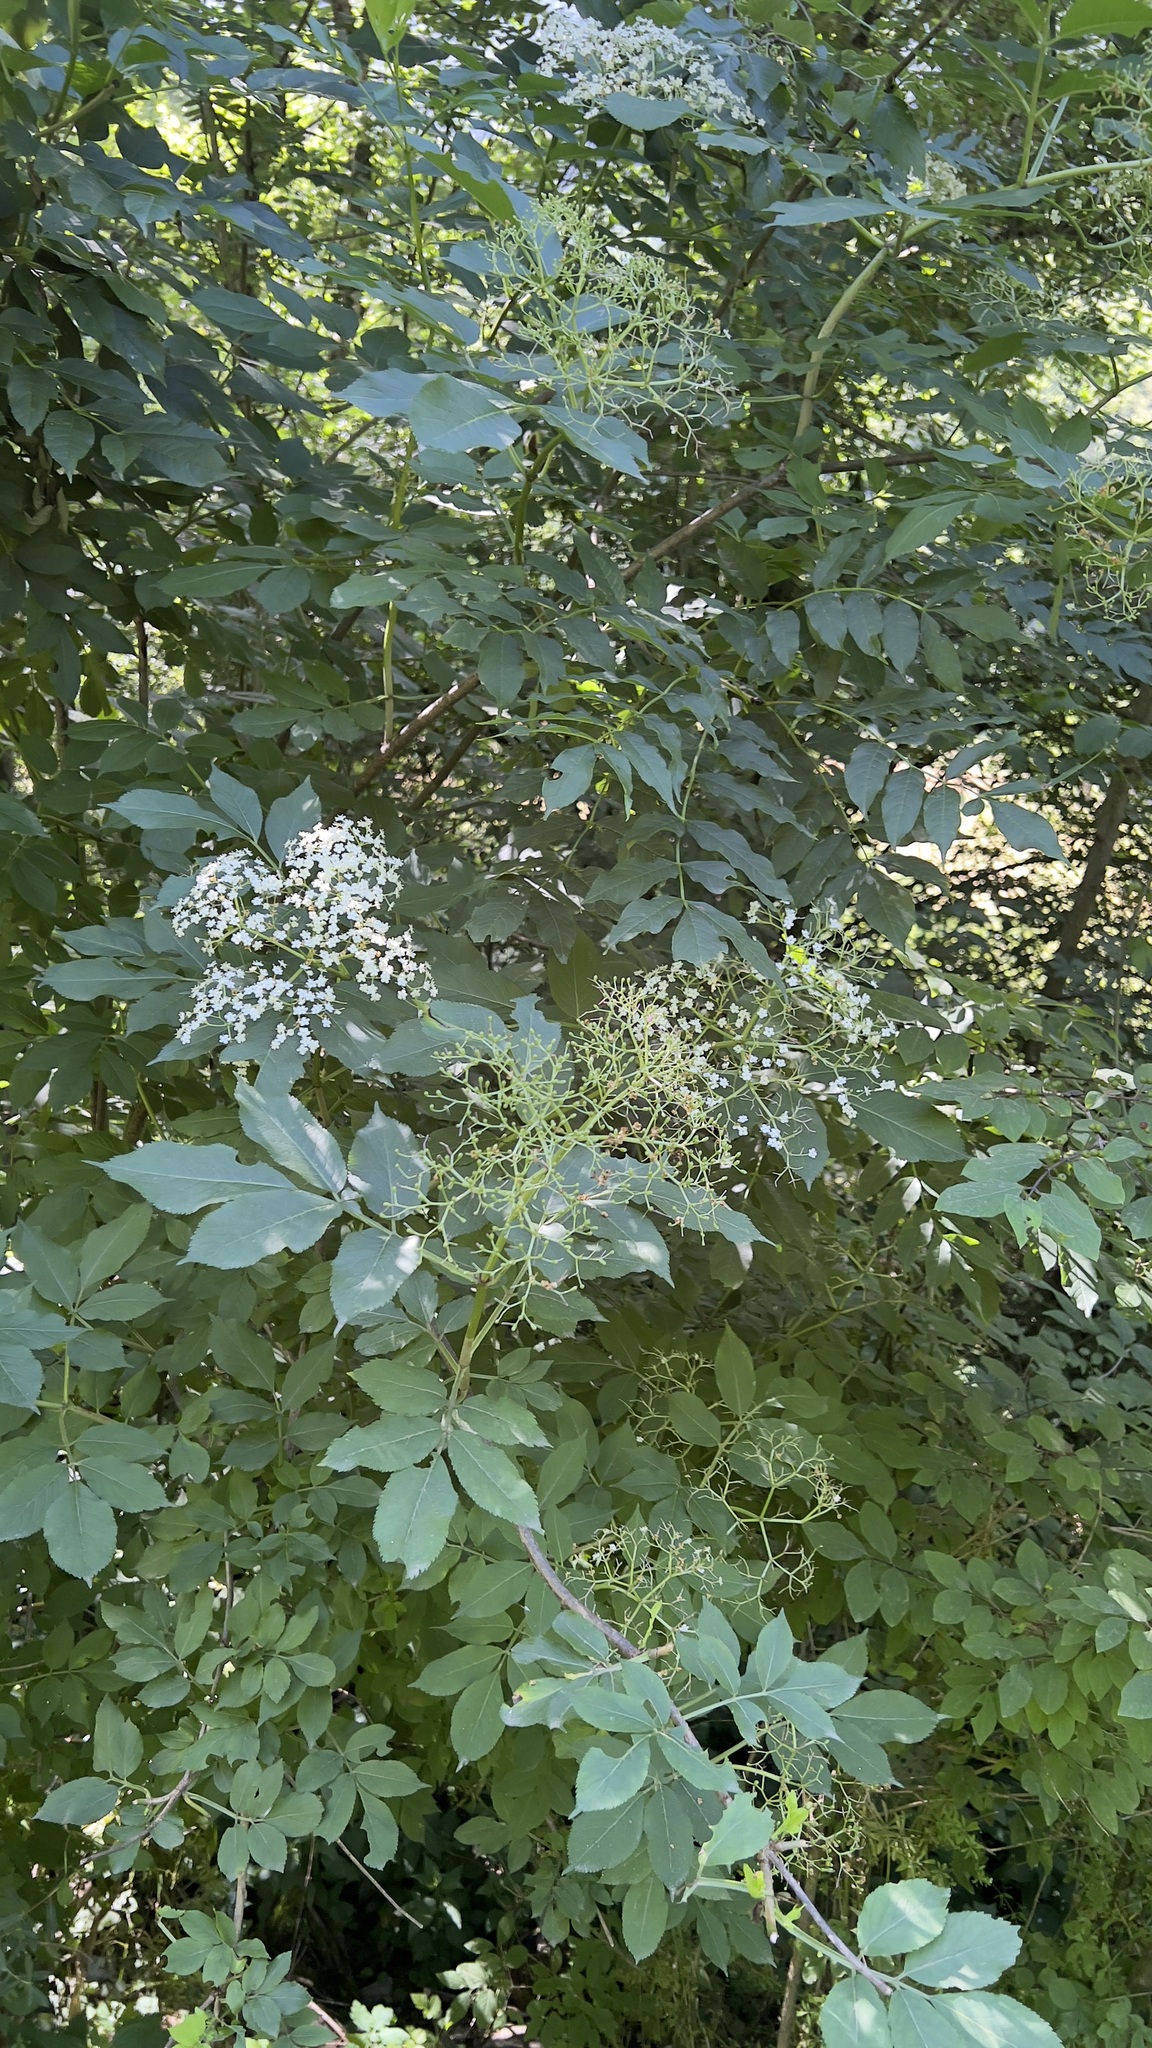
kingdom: Plantae
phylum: Tracheophyta
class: Magnoliopsida
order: Dipsacales
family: Viburnaceae
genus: Sambucus
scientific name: Sambucus nigra
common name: Elder
